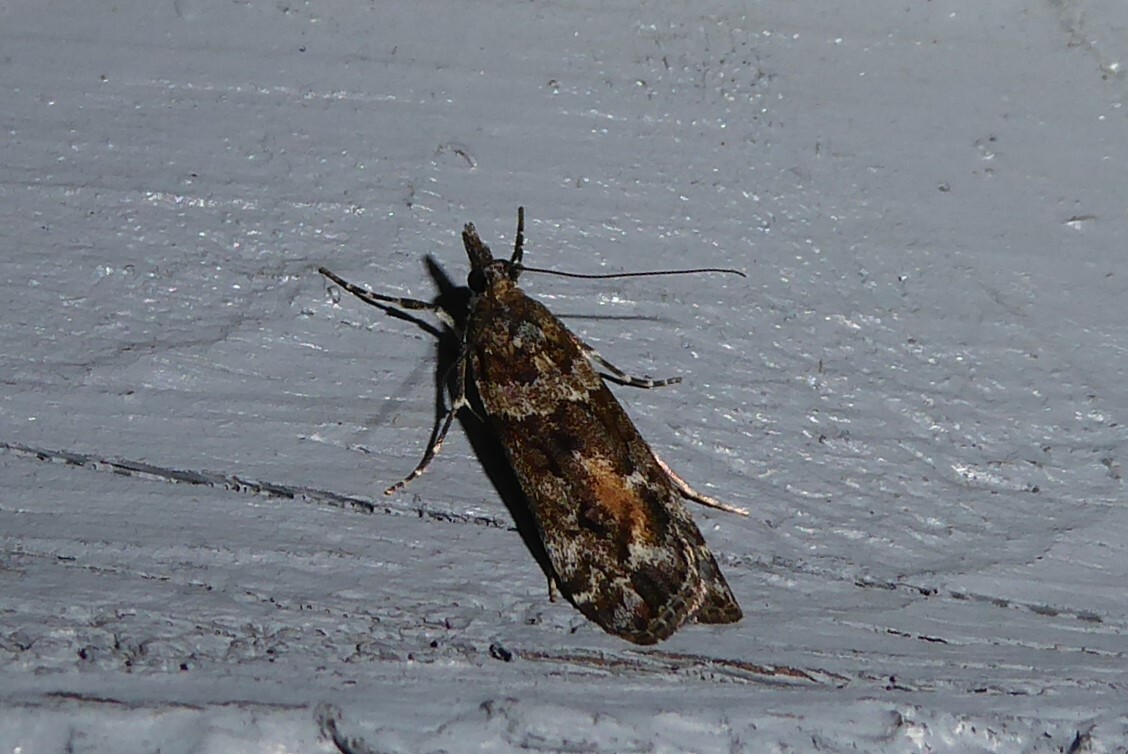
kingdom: Animalia
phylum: Arthropoda
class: Insecta
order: Lepidoptera
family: Crambidae
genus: Eudonia
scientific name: Eudonia submarginalis
